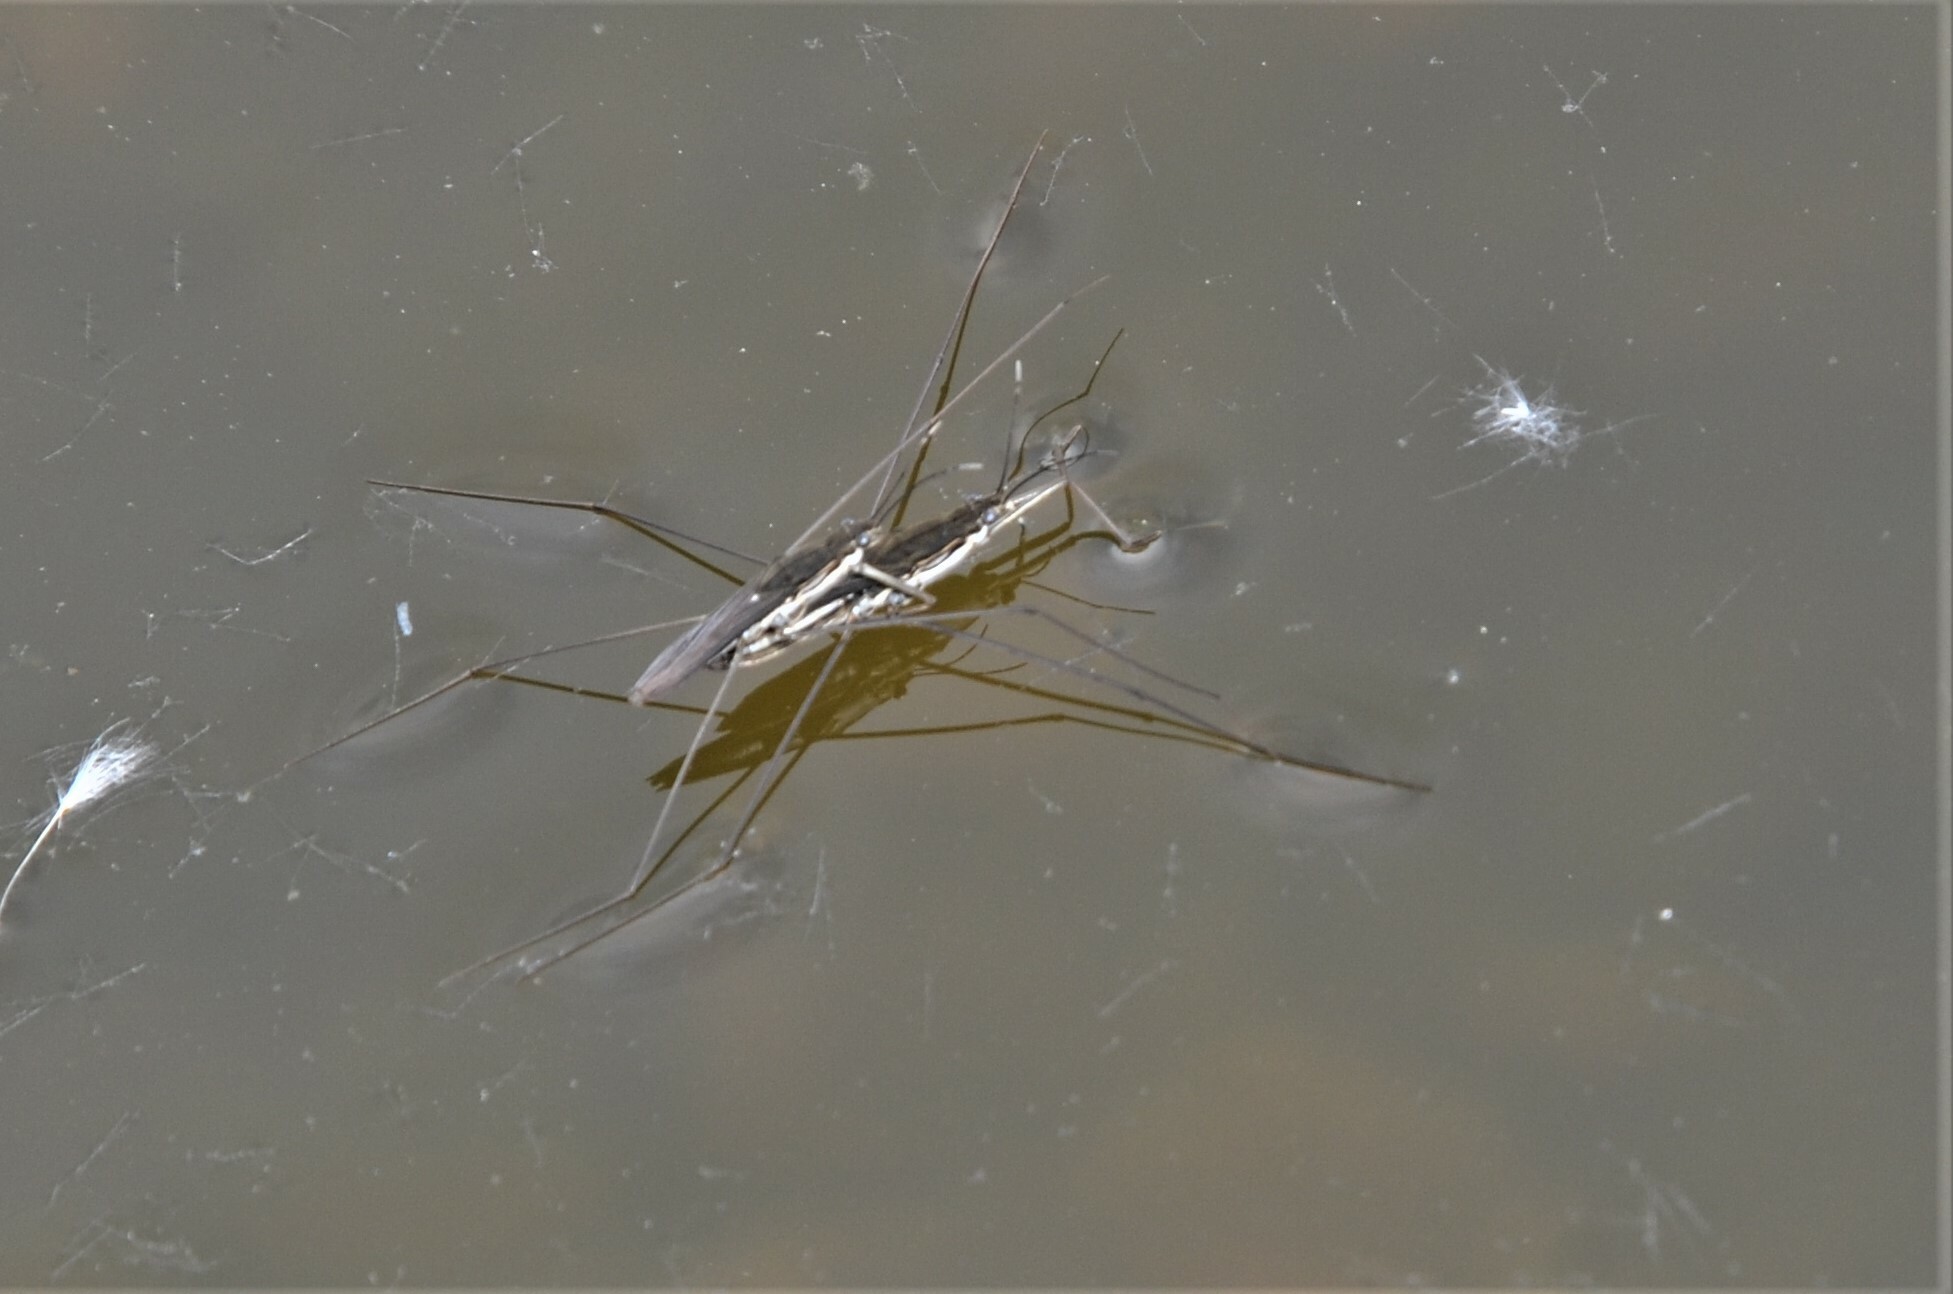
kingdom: Animalia
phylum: Arthropoda
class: Insecta
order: Hemiptera
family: Gerridae
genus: Aquarius
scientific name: Aquarius paludum
